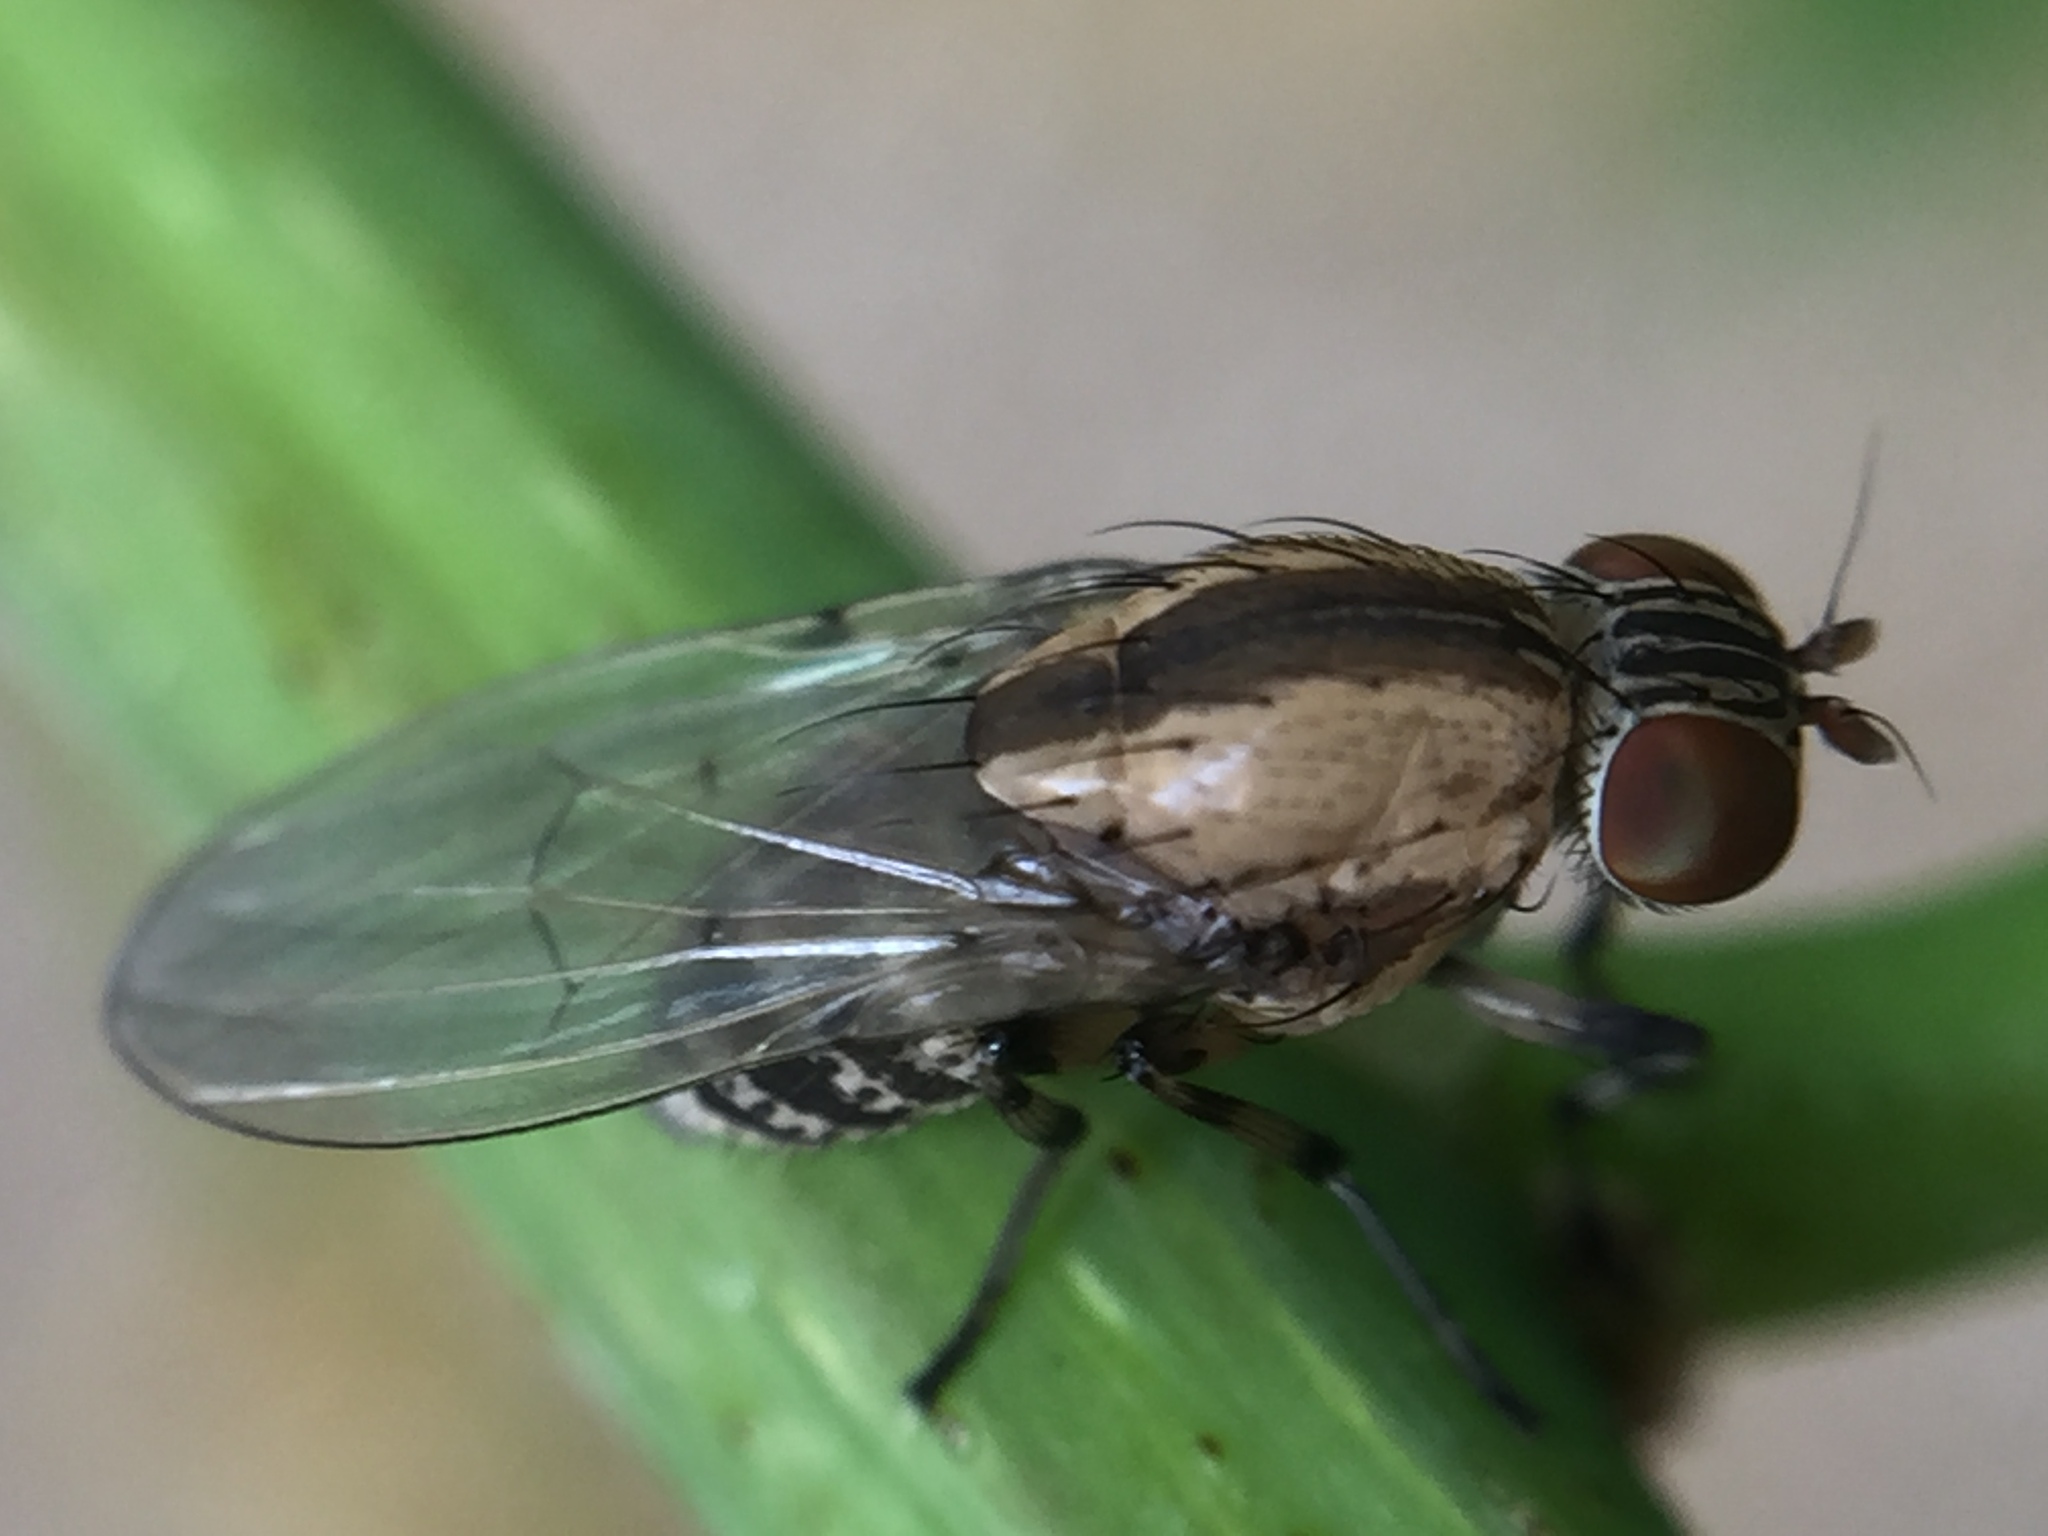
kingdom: Animalia
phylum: Arthropoda
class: Insecta
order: Diptera
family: Lauxaniidae
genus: Sapromyza
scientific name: Sapromyza neozelandica
